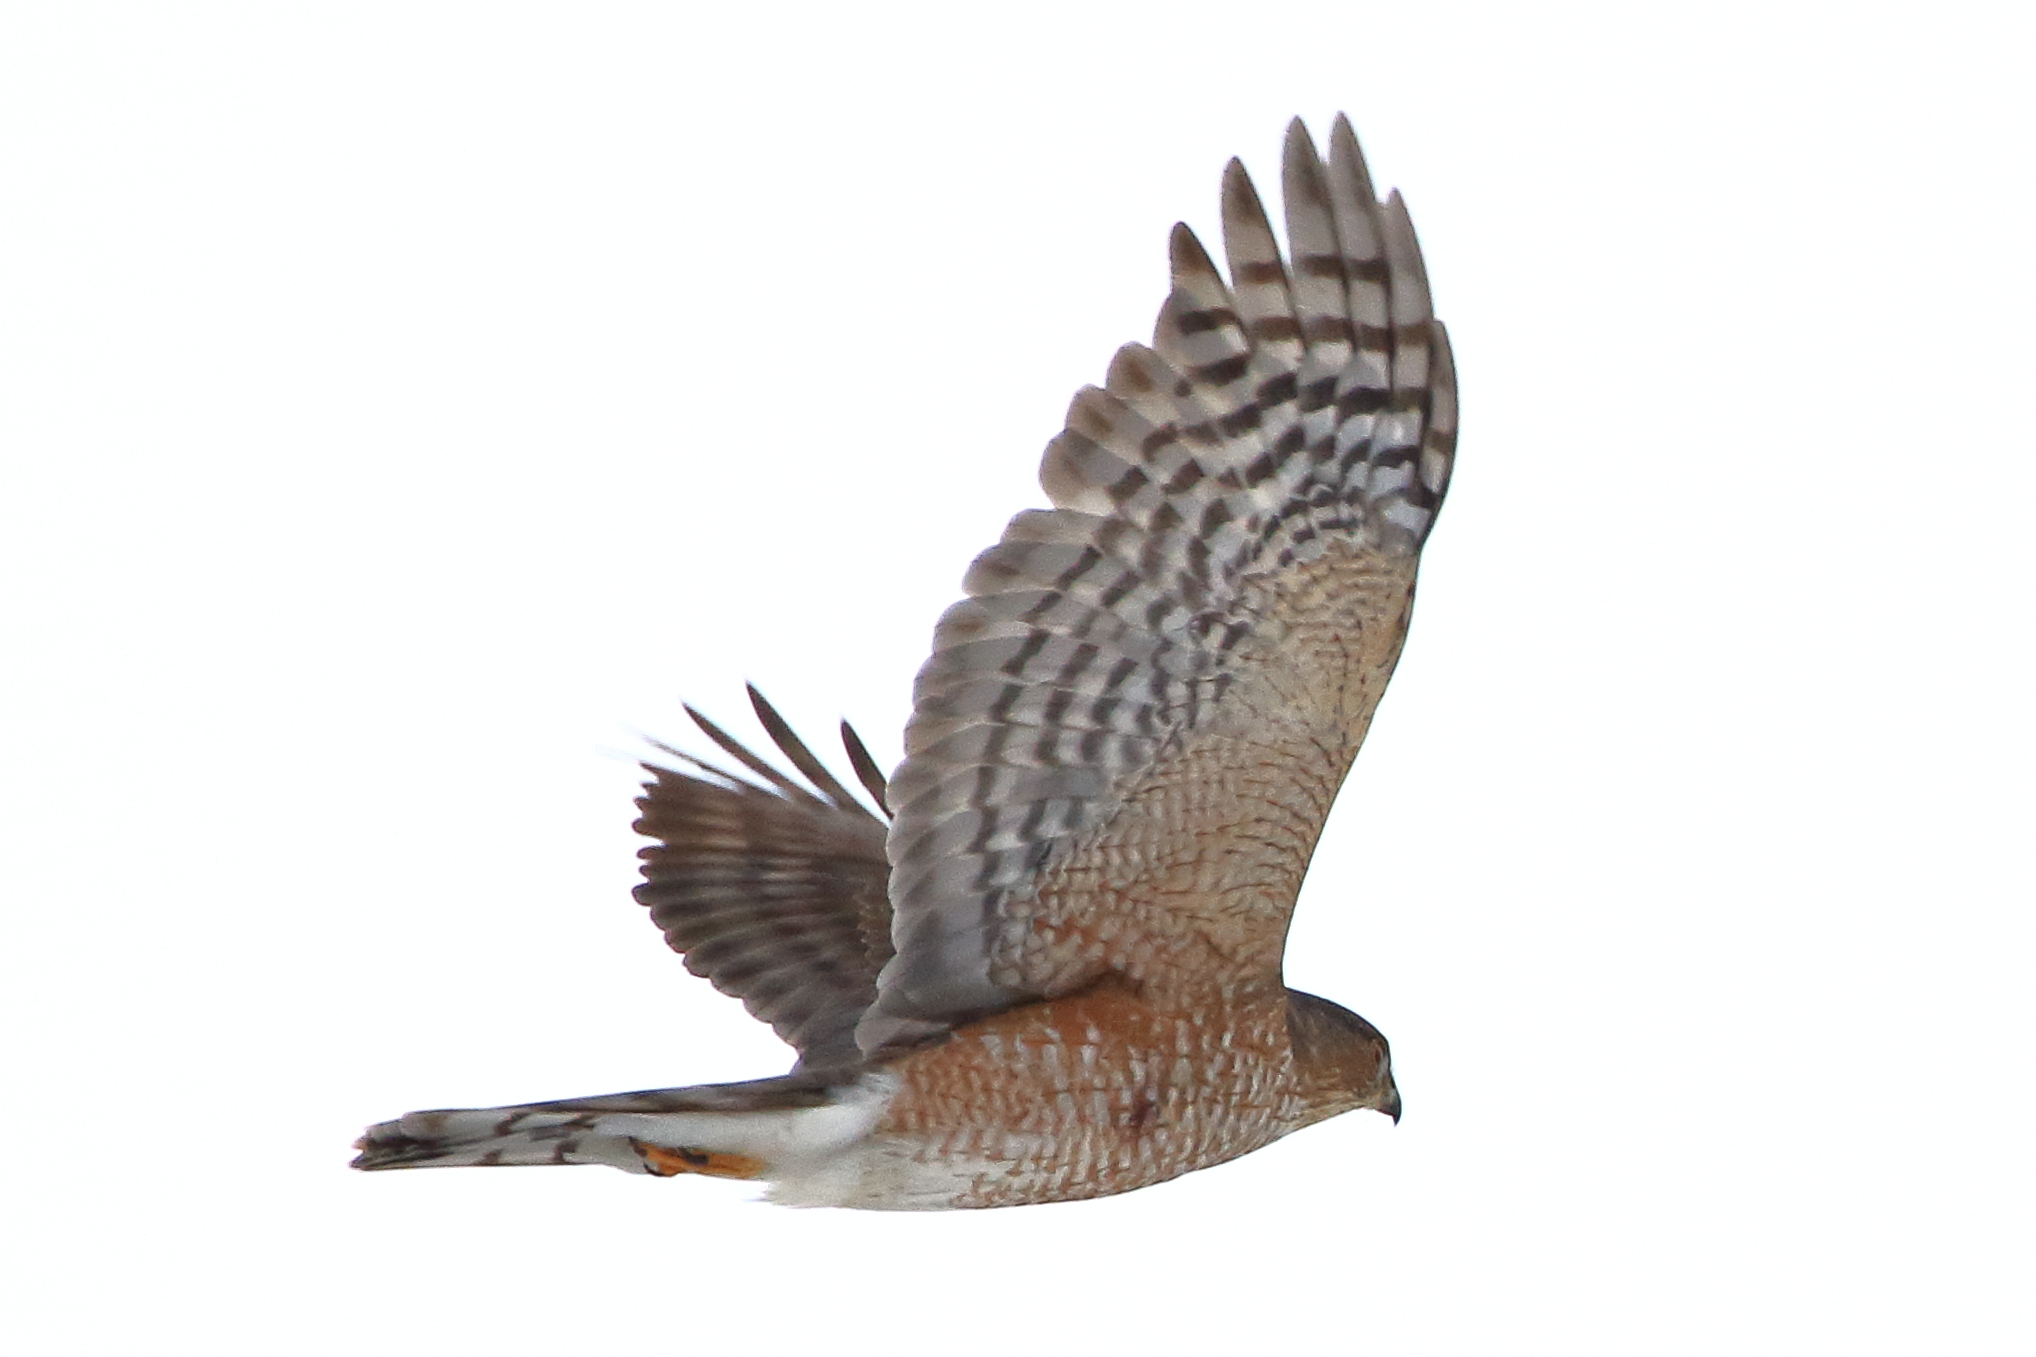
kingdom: Animalia
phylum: Chordata
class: Aves
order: Accipitriformes
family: Accipitridae
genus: Accipiter
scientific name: Accipiter striatus
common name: Sharp-shinned hawk
